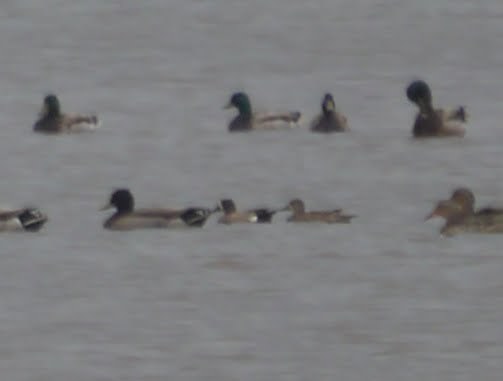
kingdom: Animalia
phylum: Chordata
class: Aves
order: Anseriformes
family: Anatidae
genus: Spatula
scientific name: Spatula discors
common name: Blue-winged teal
